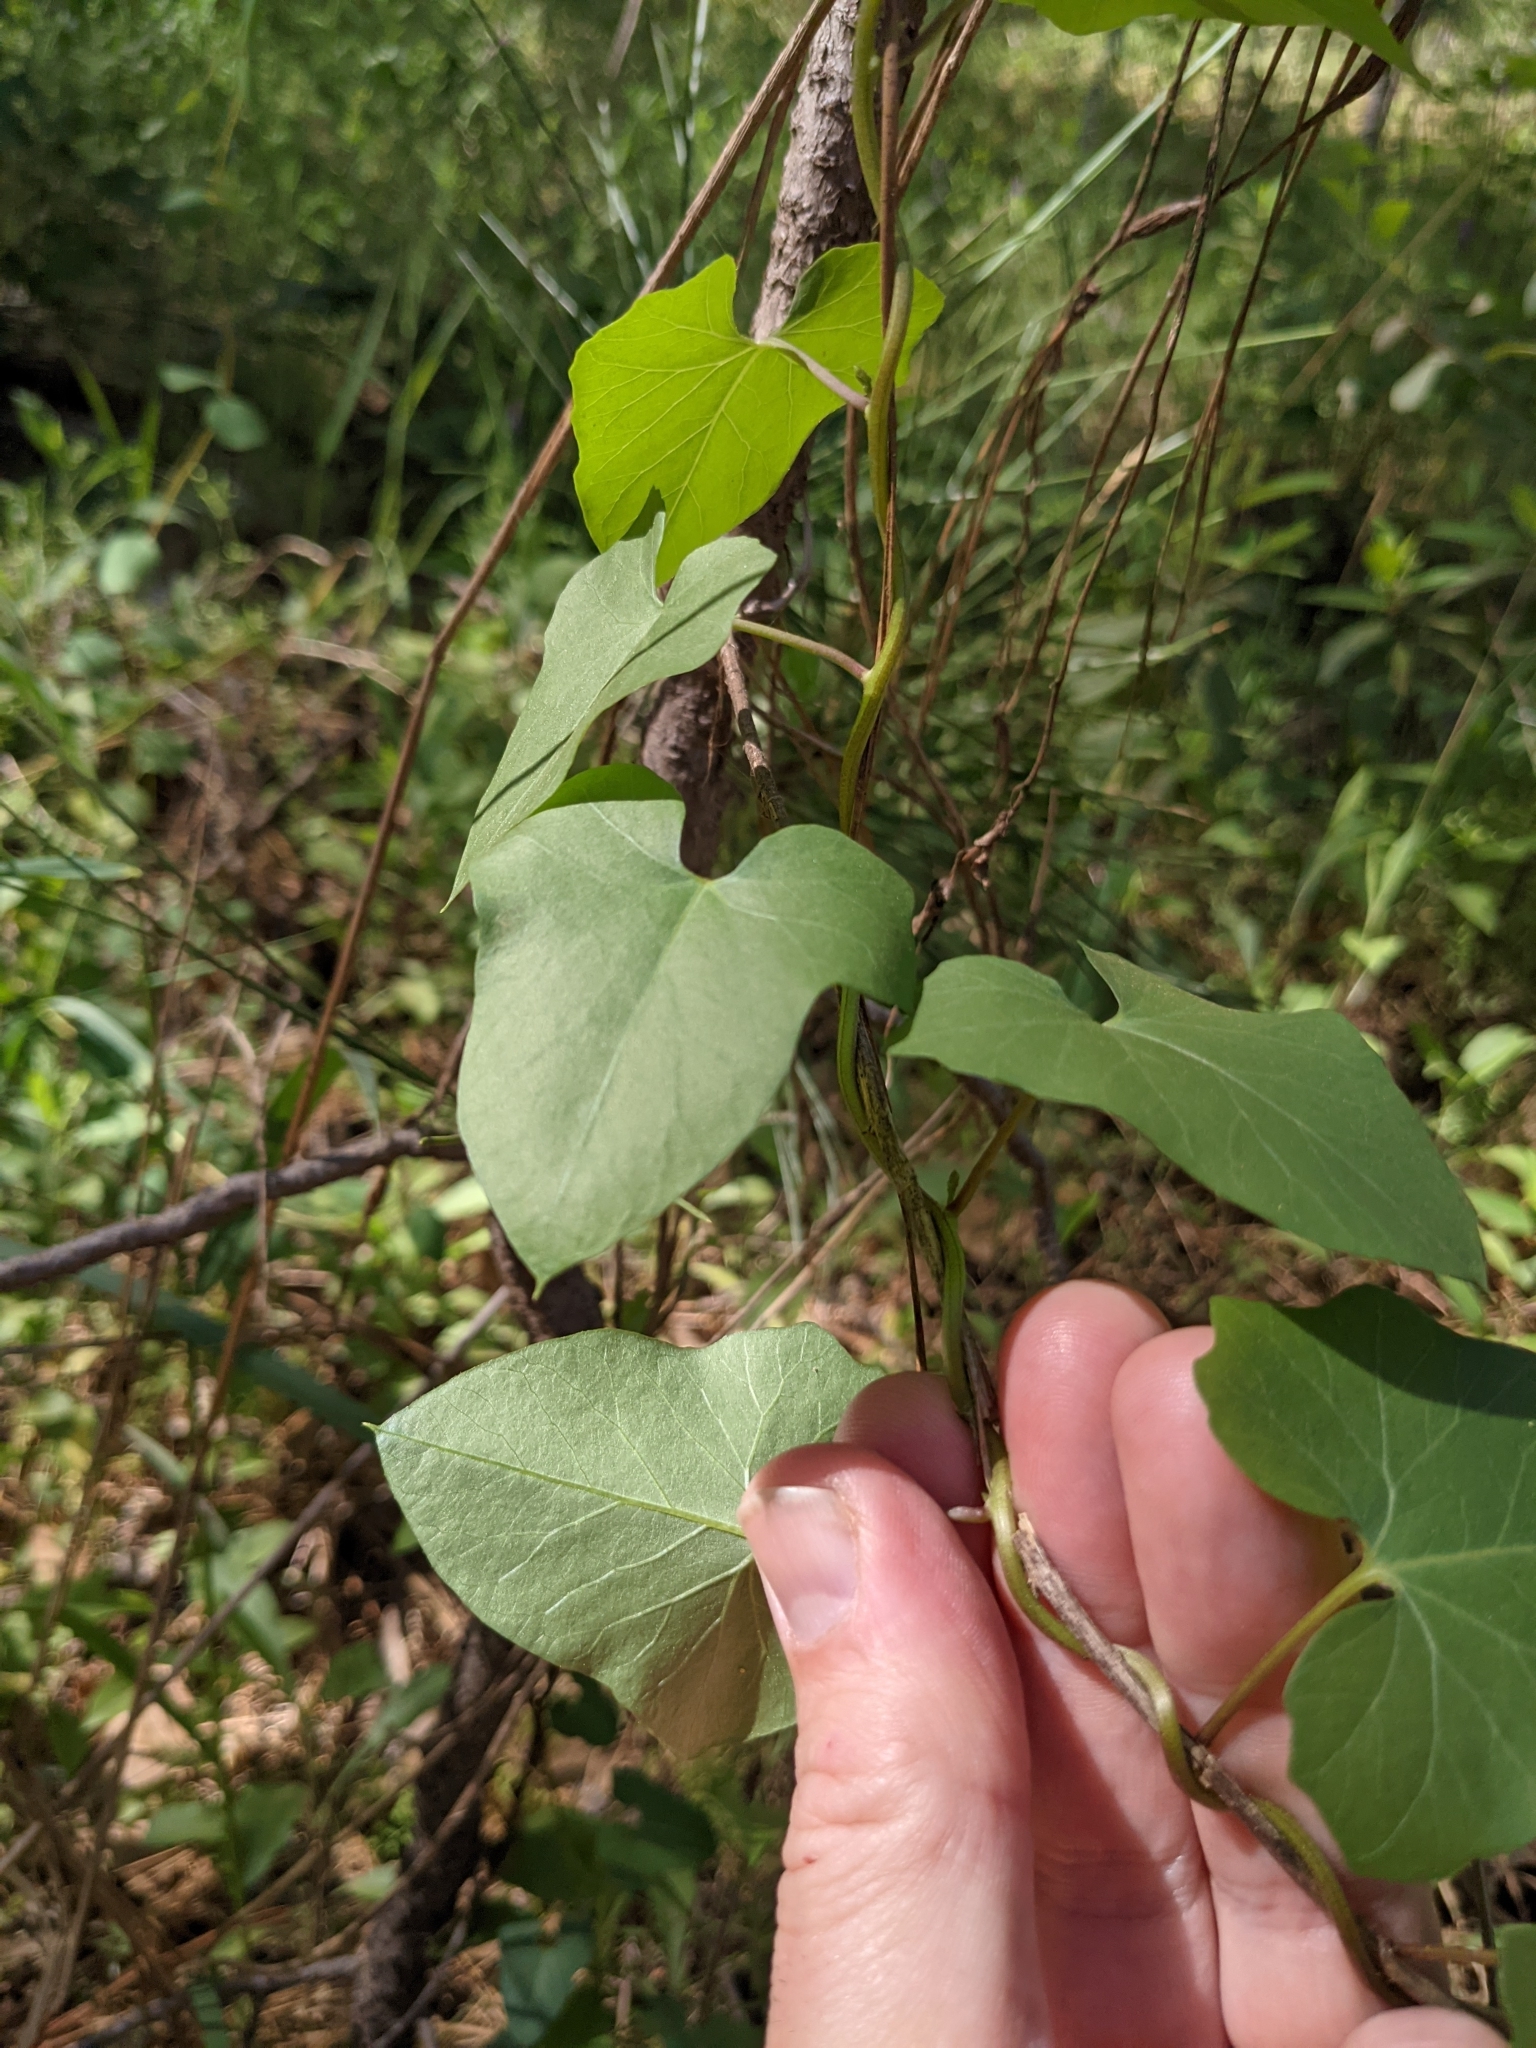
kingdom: Plantae
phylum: Tracheophyta
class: Magnoliopsida
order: Piperales
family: Aristolochiaceae
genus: Isotrema
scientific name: Isotrema californicum
